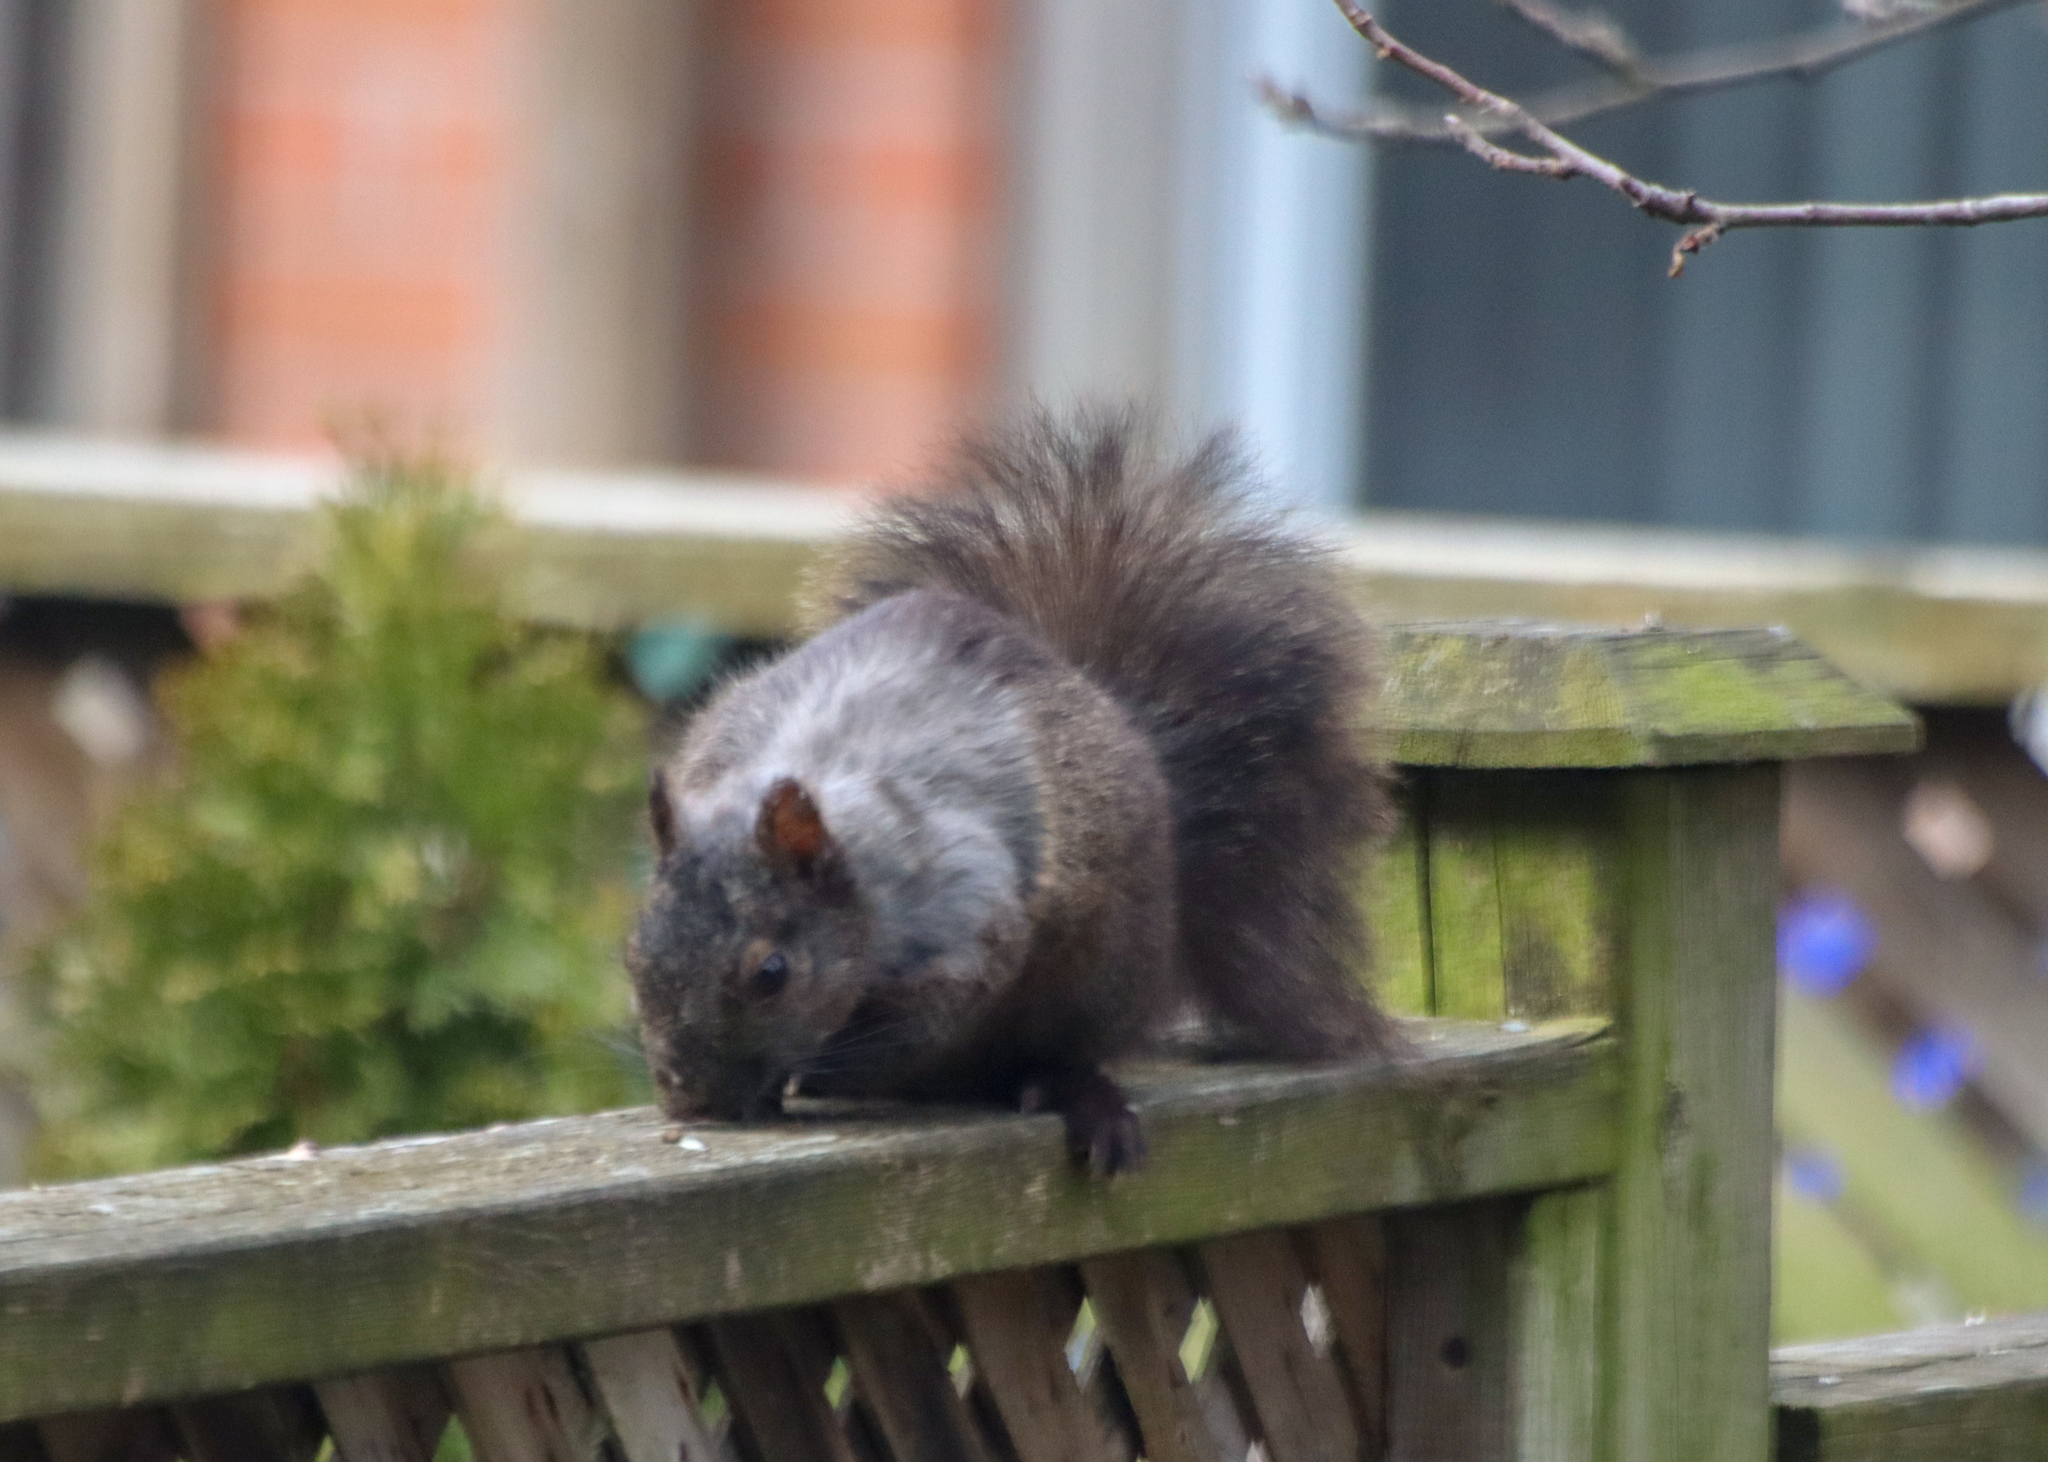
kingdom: Animalia
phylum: Chordata
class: Mammalia
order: Rodentia
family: Sciuridae
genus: Sciurus
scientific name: Sciurus carolinensis
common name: Eastern gray squirrel
